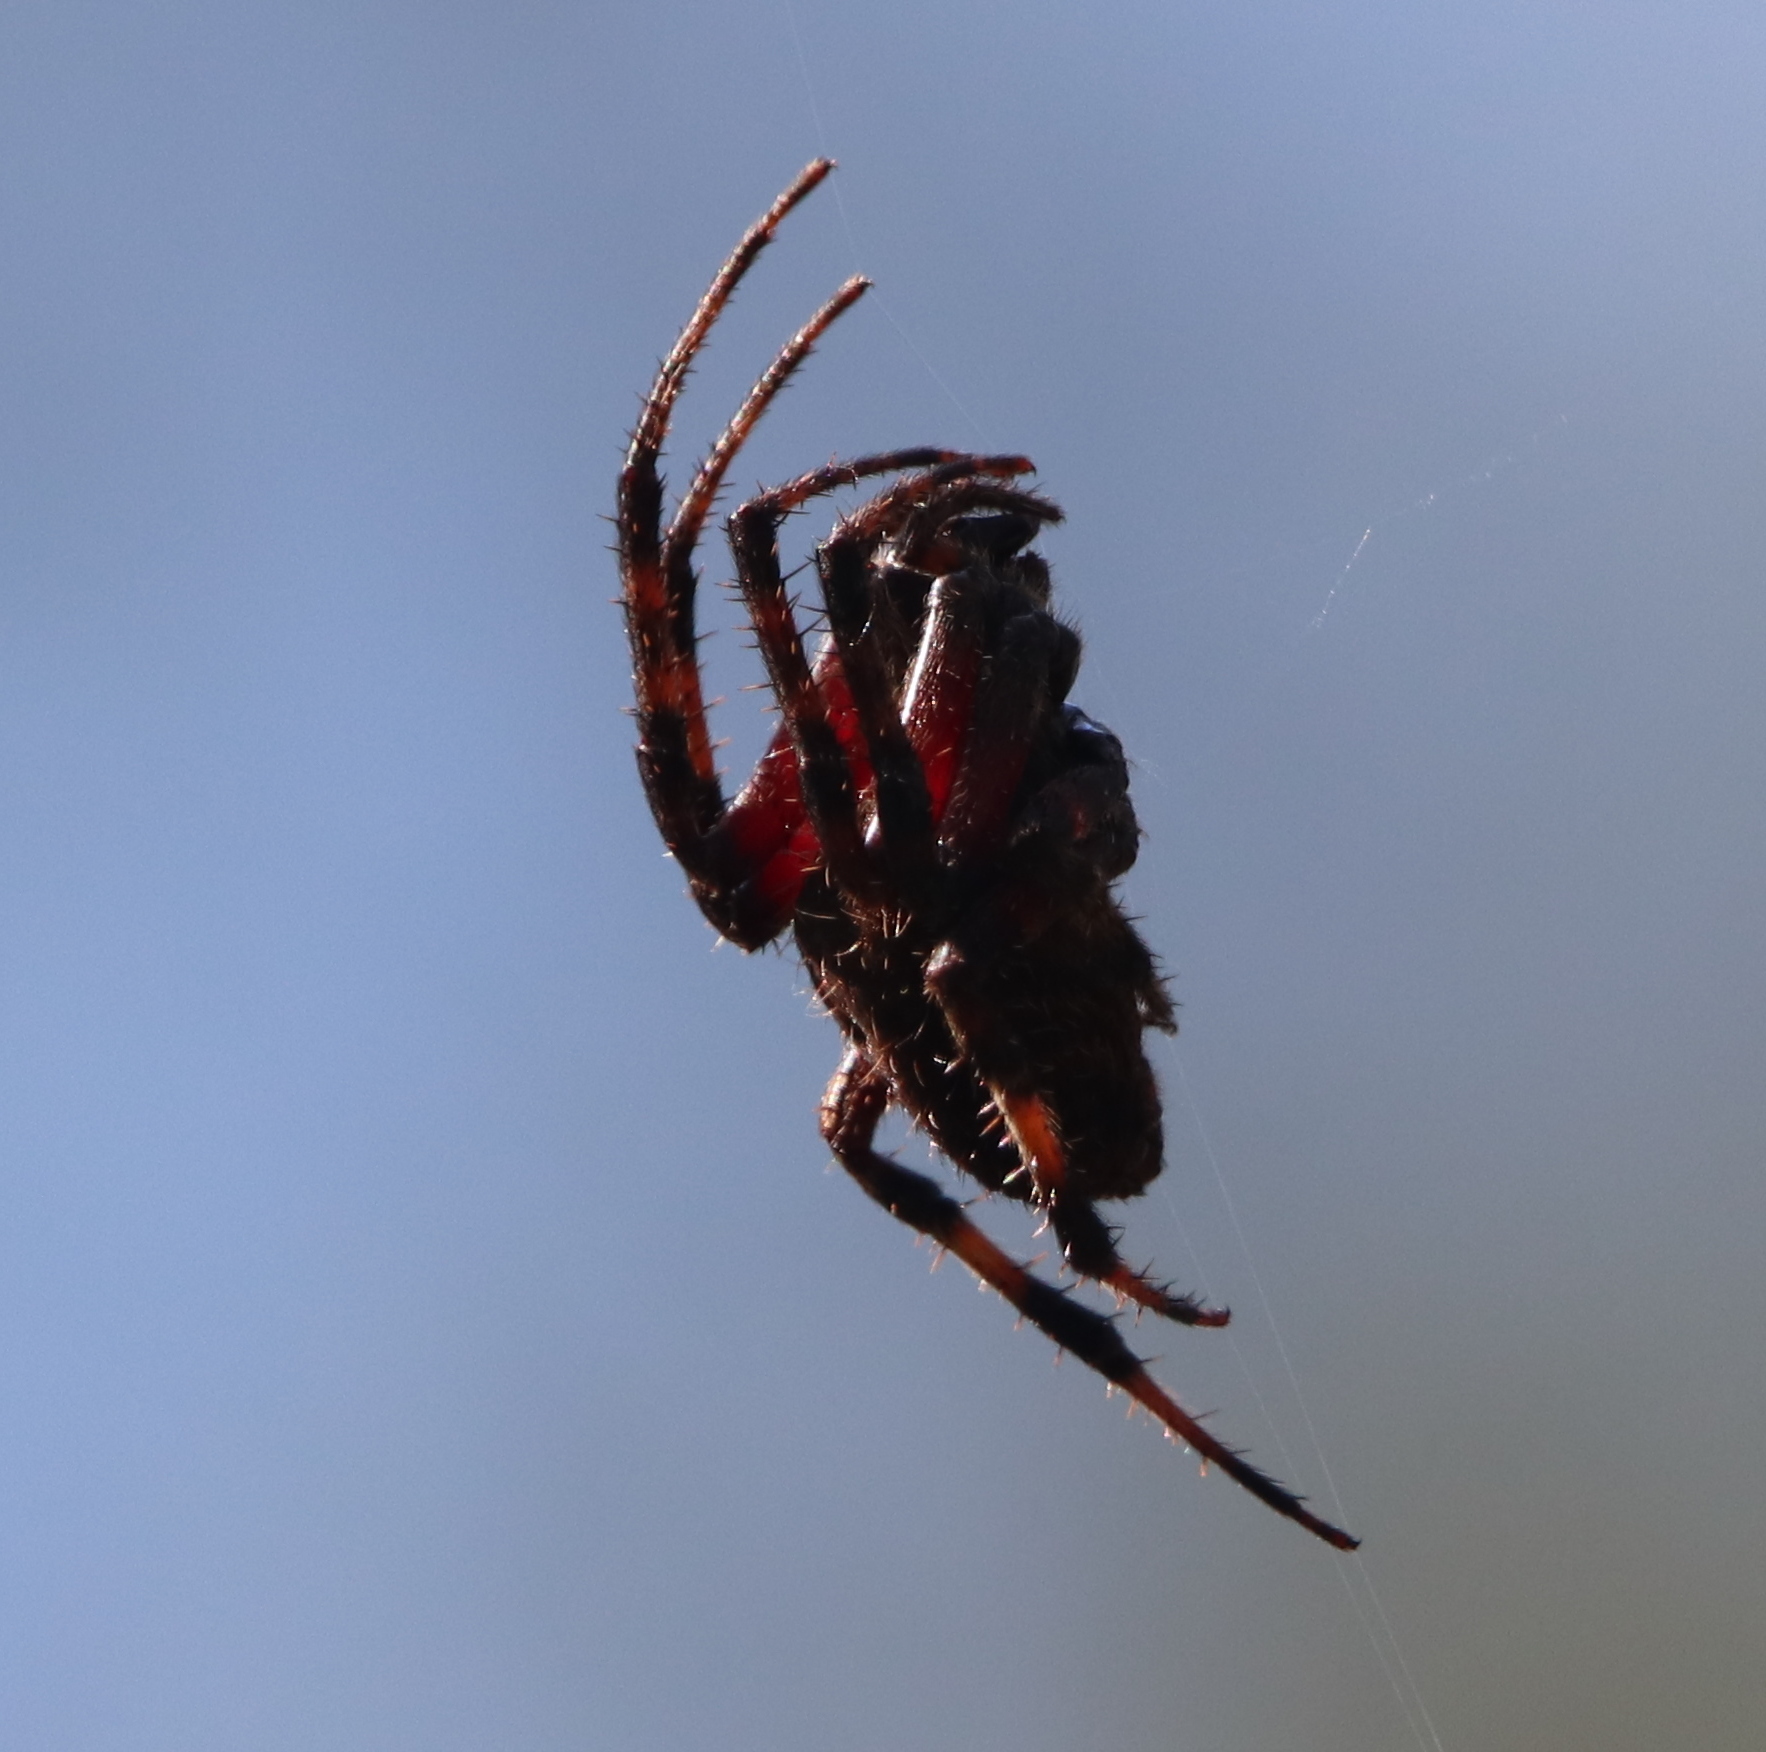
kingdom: Animalia
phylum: Arthropoda
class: Arachnida
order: Araneae
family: Araneidae
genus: Neoscona
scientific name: Neoscona crucifera
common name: Spotted orbweaver
